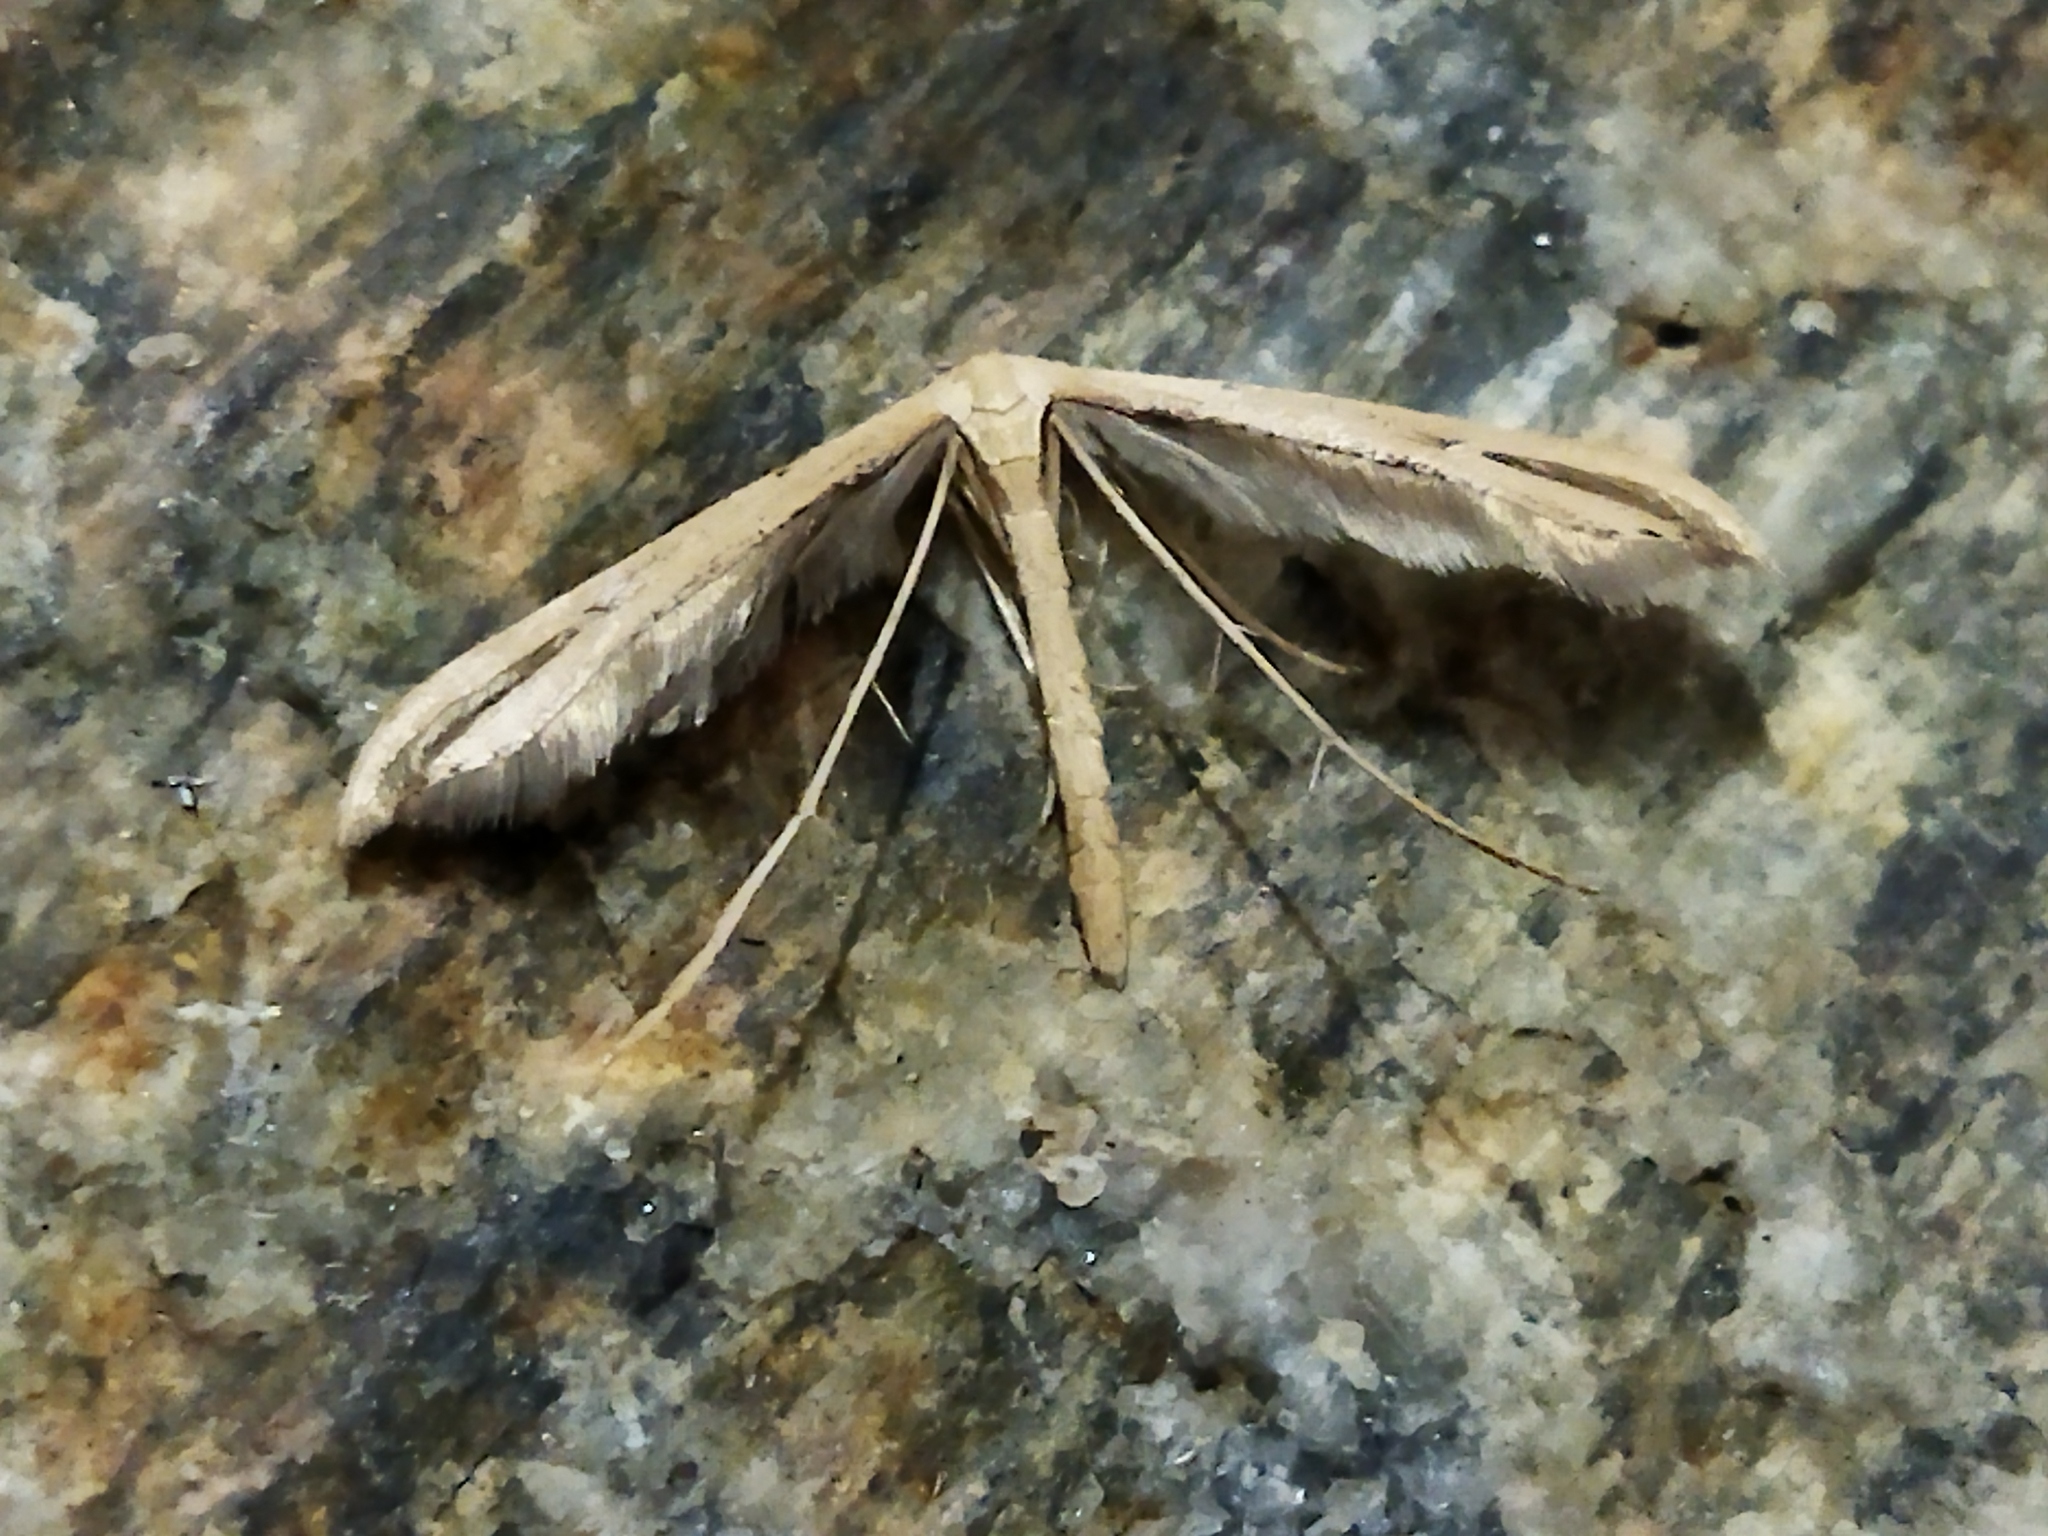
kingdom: Animalia
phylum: Arthropoda
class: Insecta
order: Lepidoptera
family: Pterophoridae
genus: Emmelina
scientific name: Emmelina monodactyla
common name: Common plume
